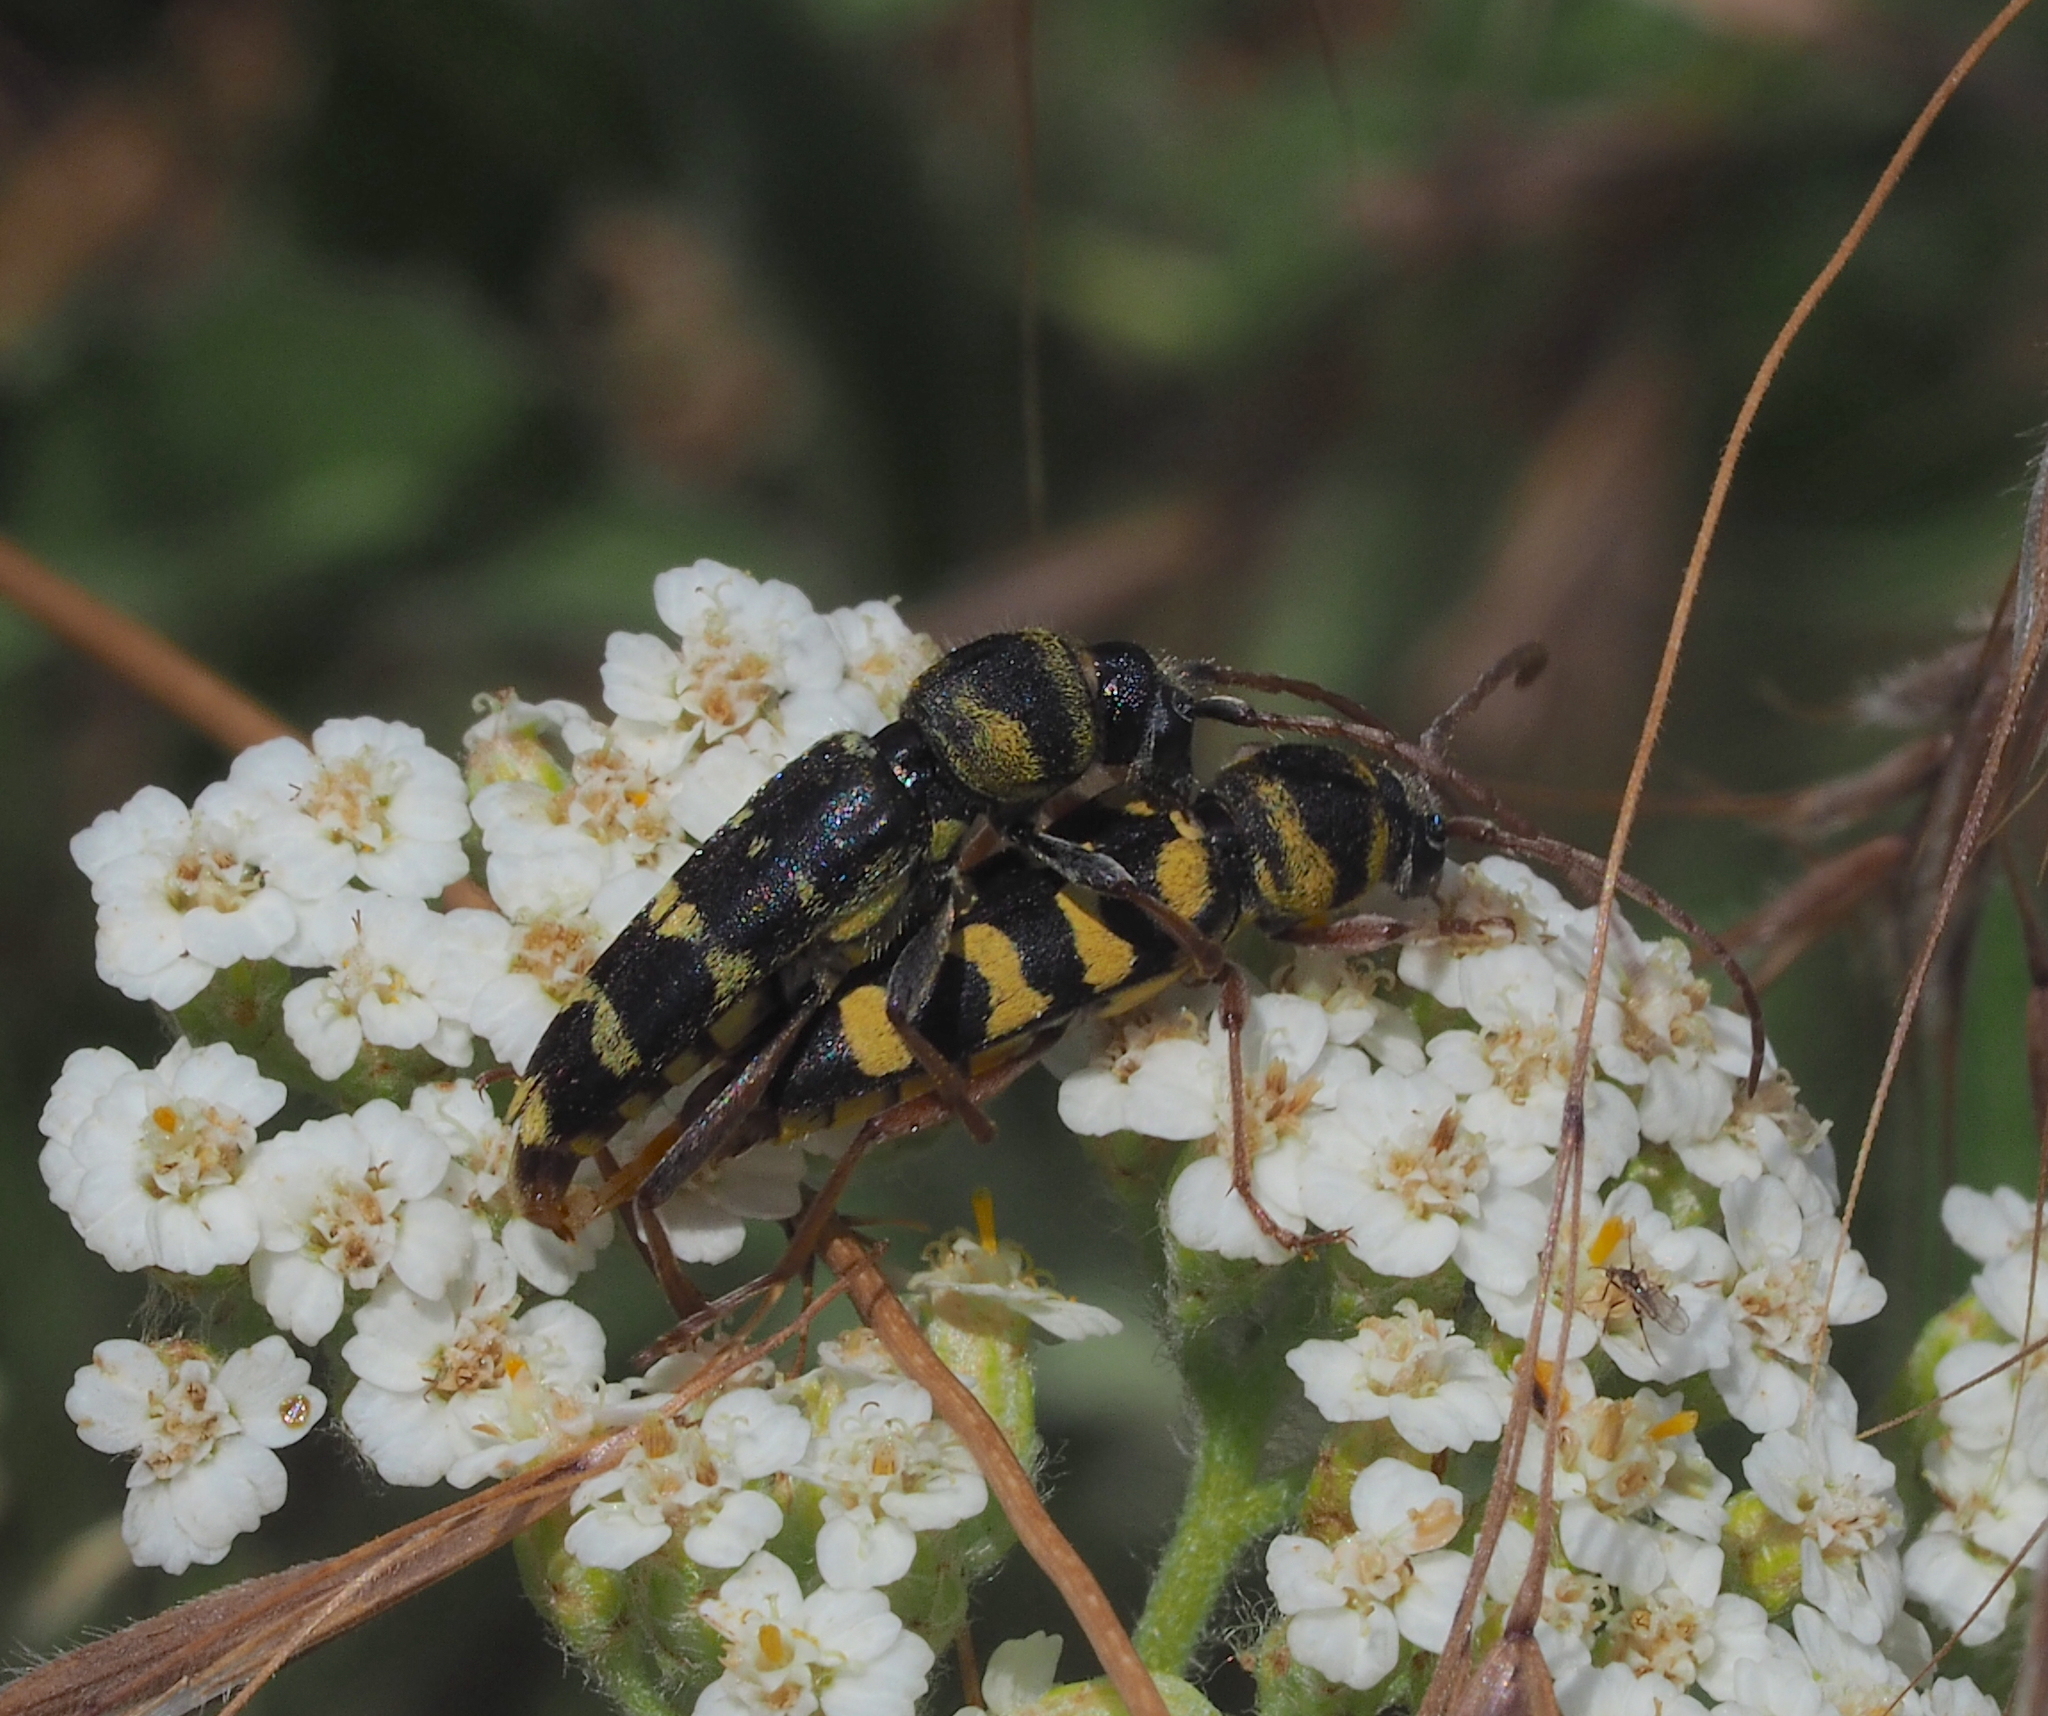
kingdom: Animalia
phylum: Arthropoda
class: Insecta
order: Coleoptera
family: Cerambycidae
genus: Plagionotus
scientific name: Plagionotus floralis
